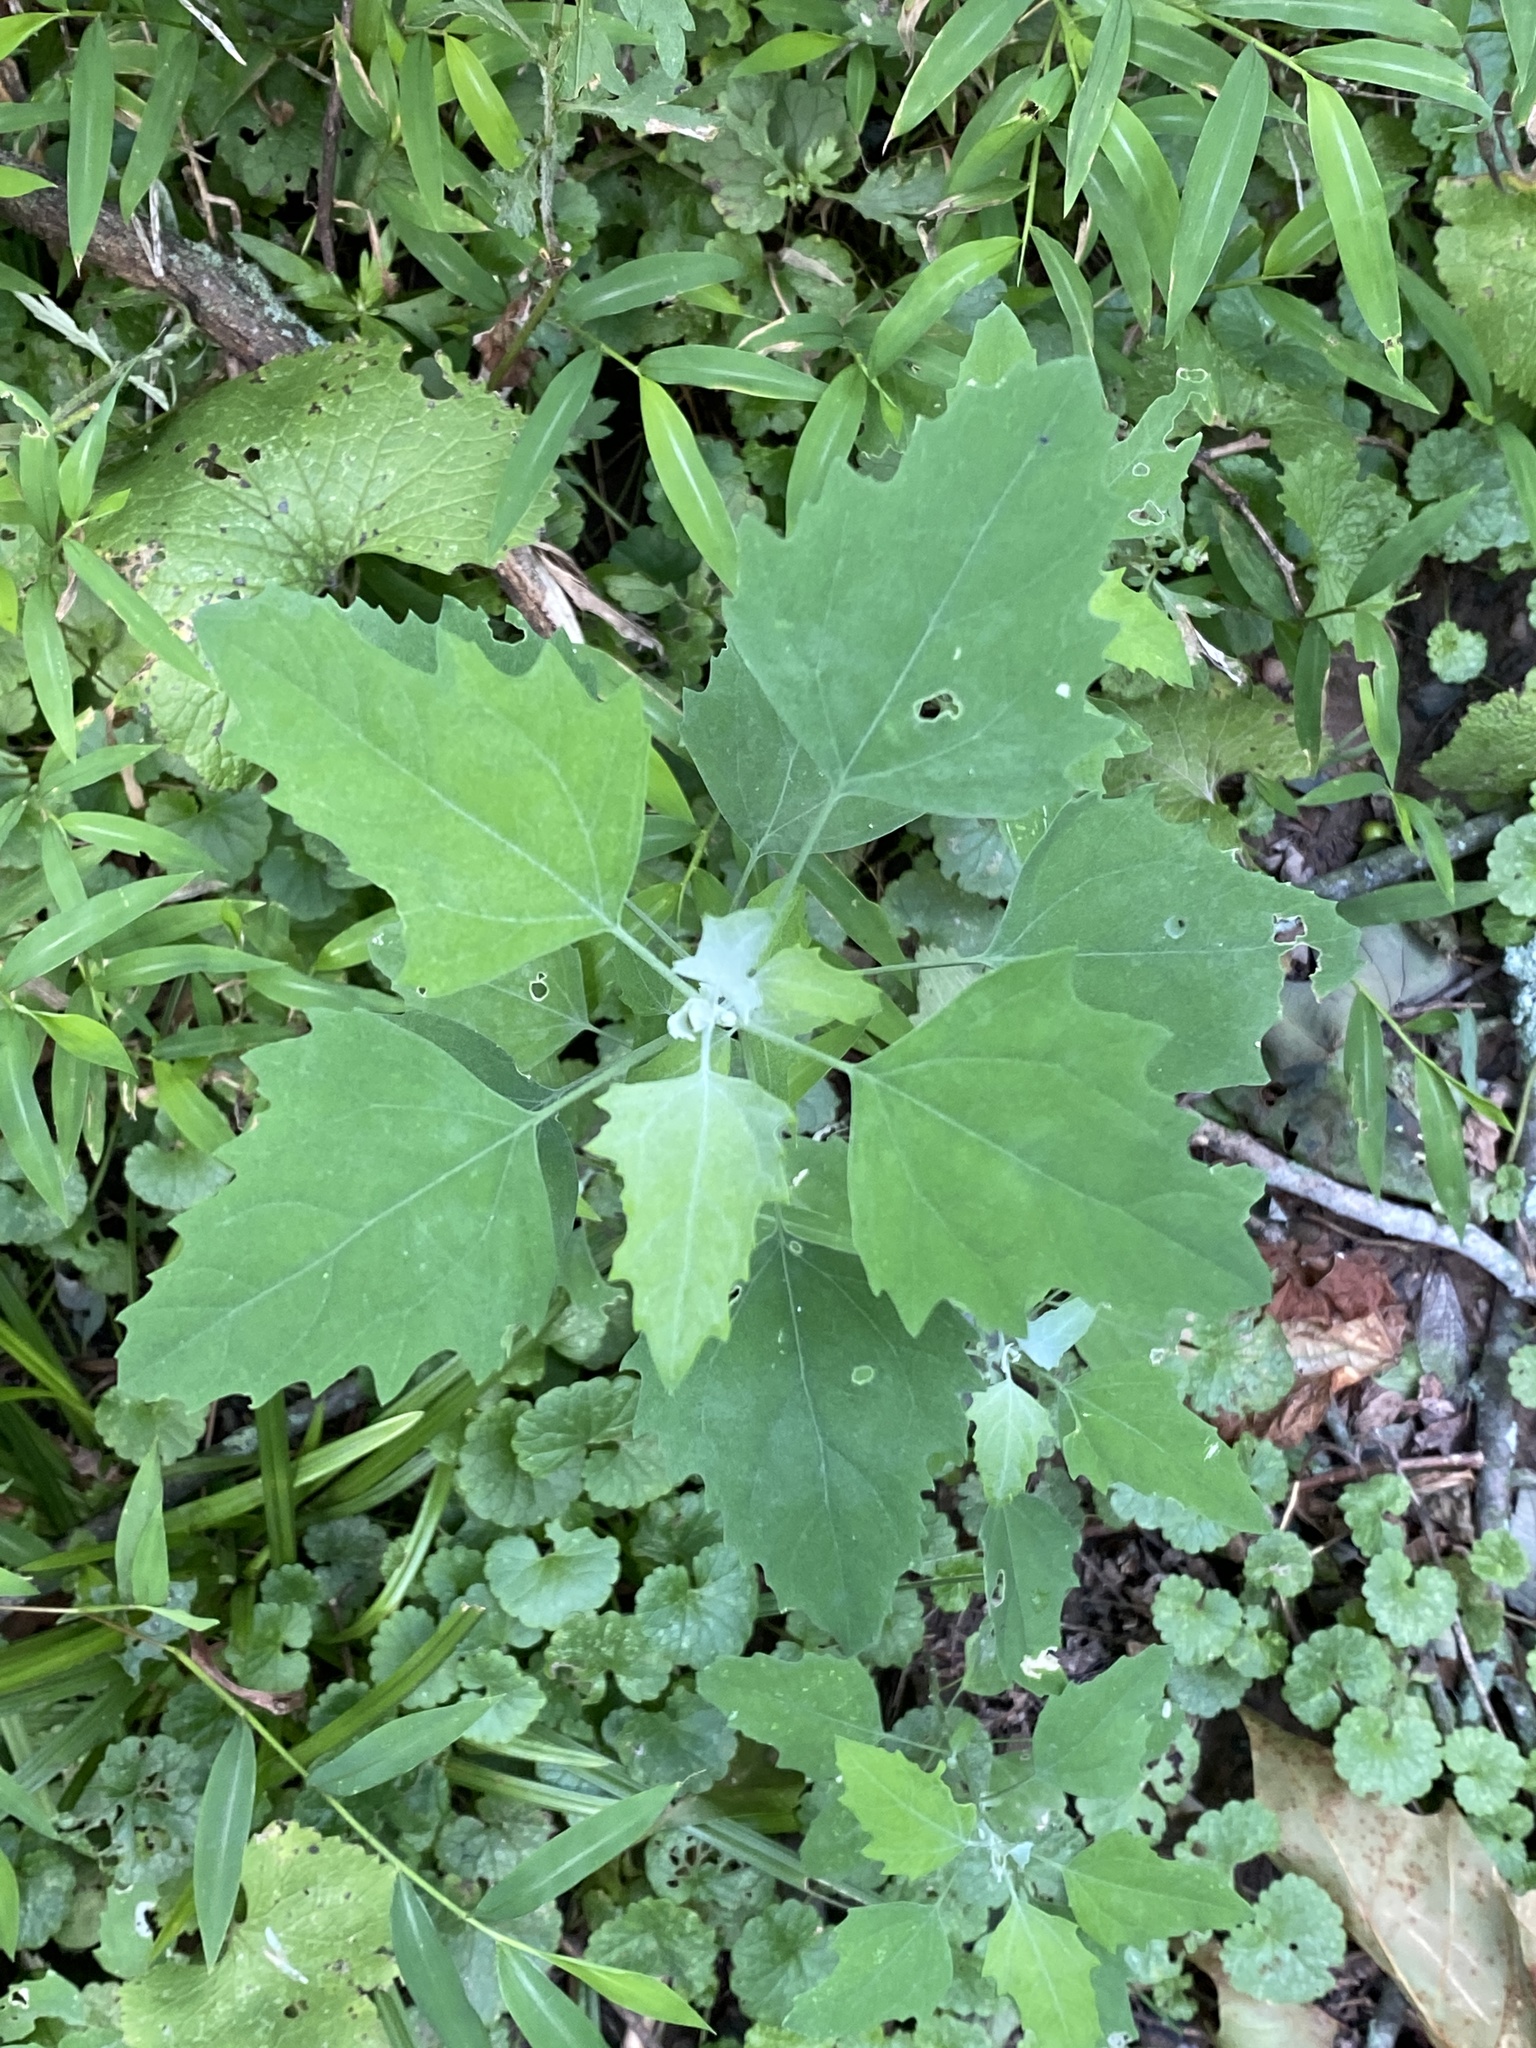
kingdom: Plantae
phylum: Tracheophyta
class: Magnoliopsida
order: Caryophyllales
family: Amaranthaceae
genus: Chenopodium
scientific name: Chenopodium album
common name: Fat-hen
